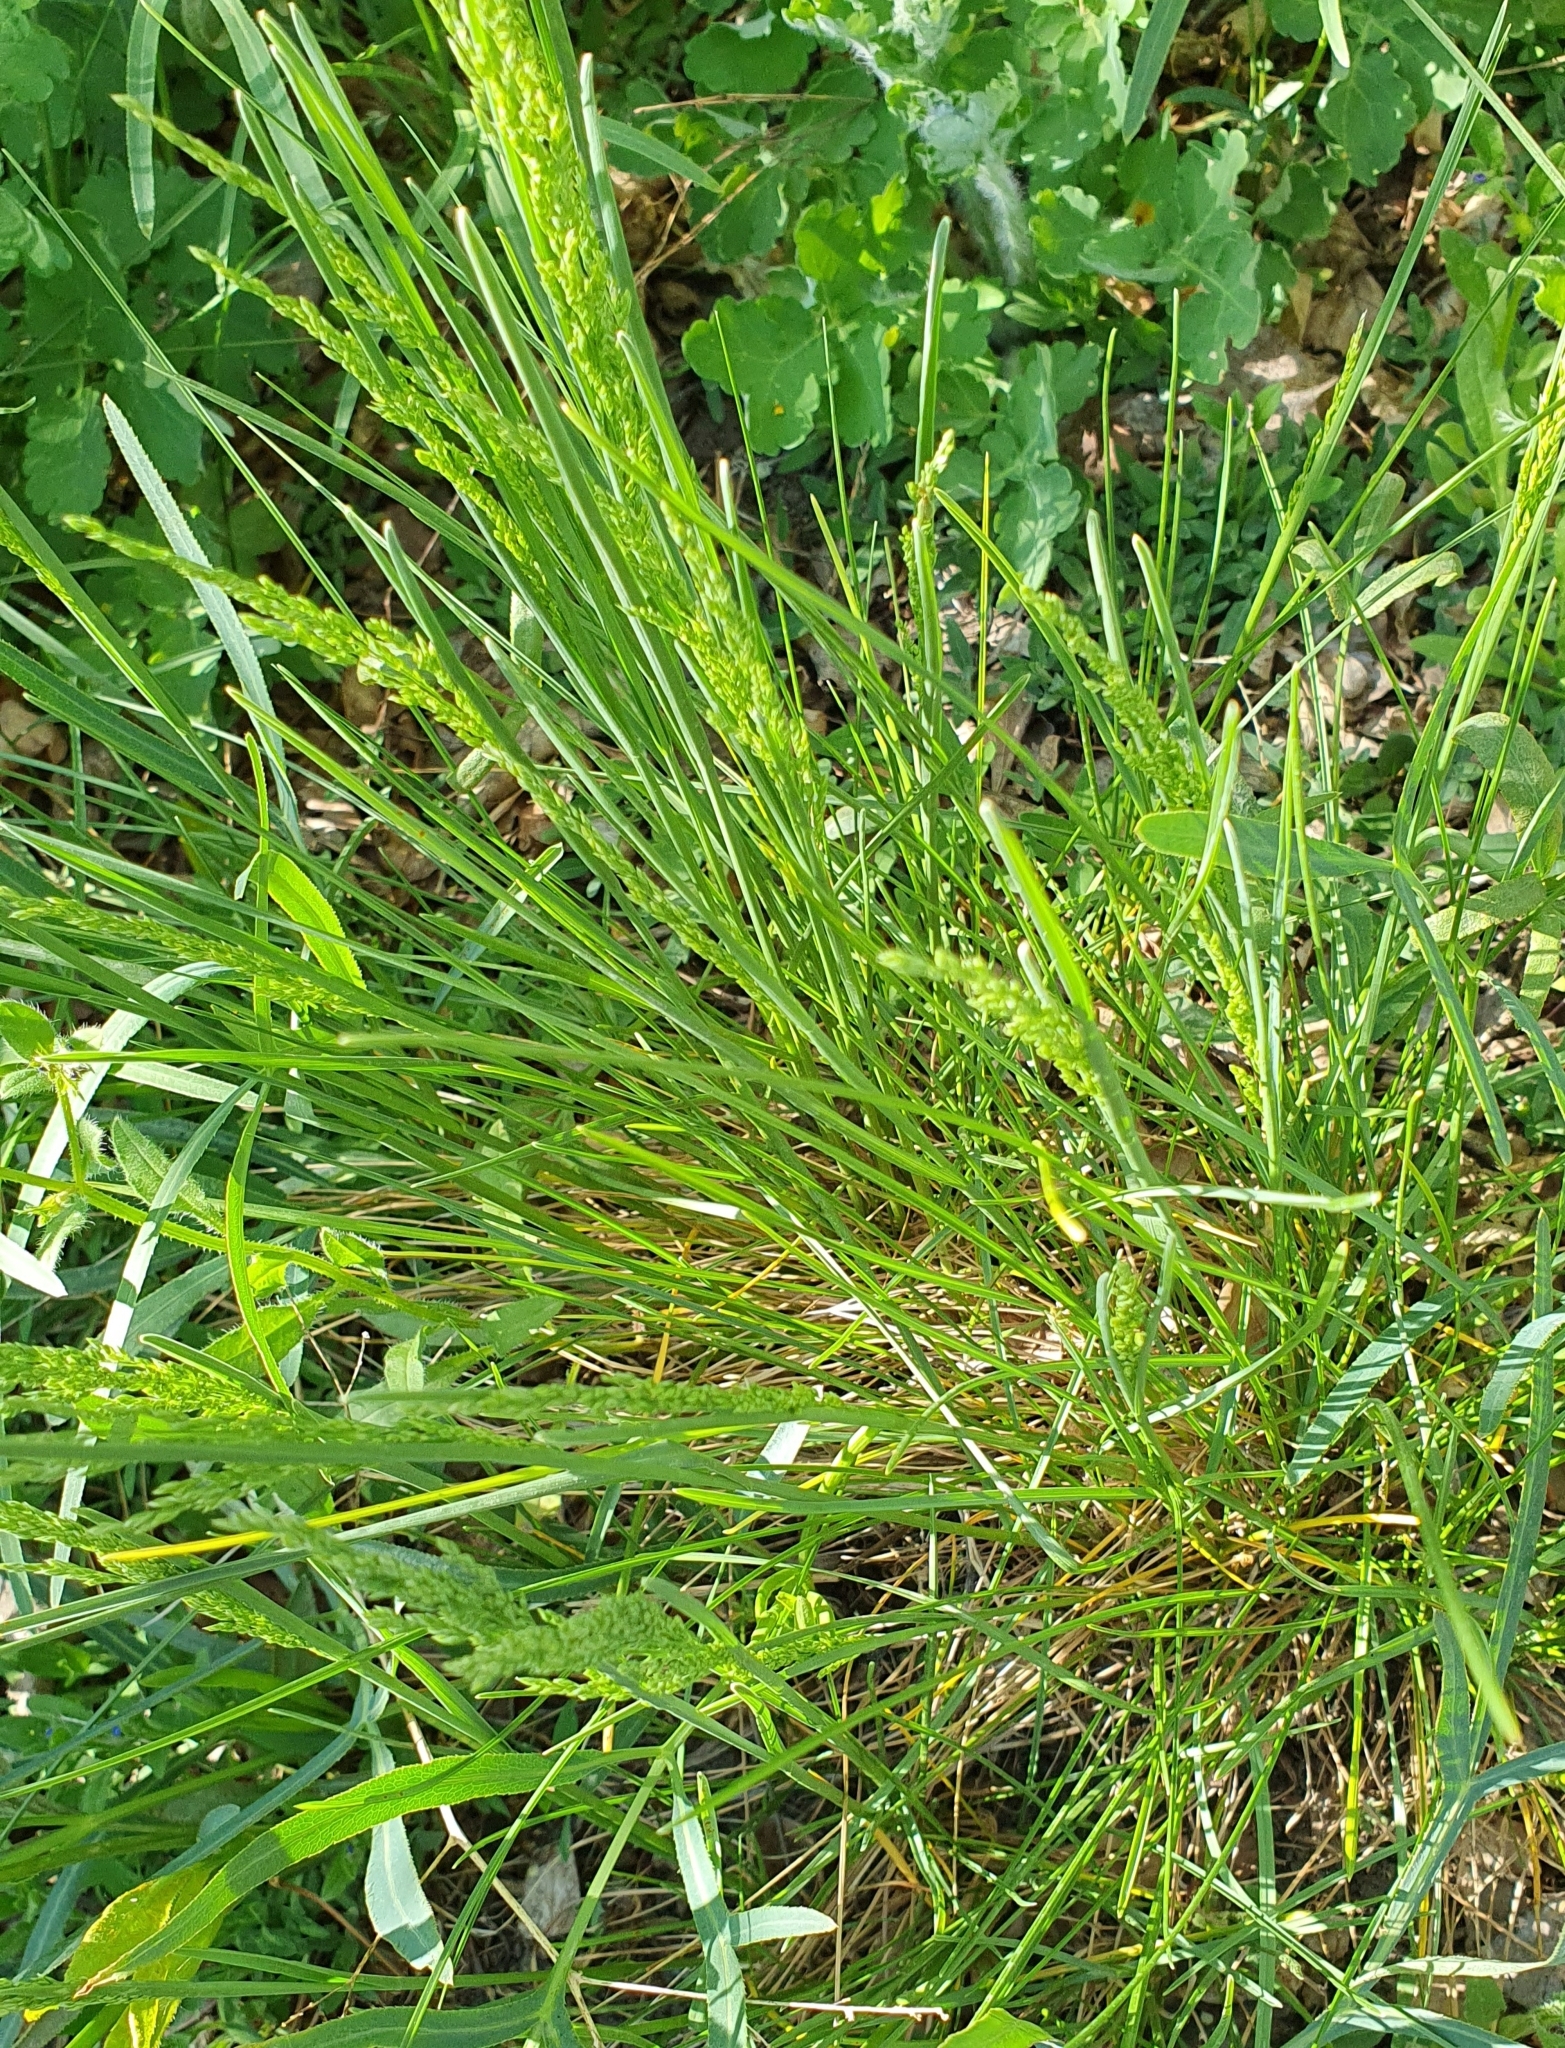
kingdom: Plantae
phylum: Tracheophyta
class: Liliopsida
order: Poales
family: Poaceae
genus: Poa
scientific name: Poa pratensis
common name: Kentucky bluegrass
